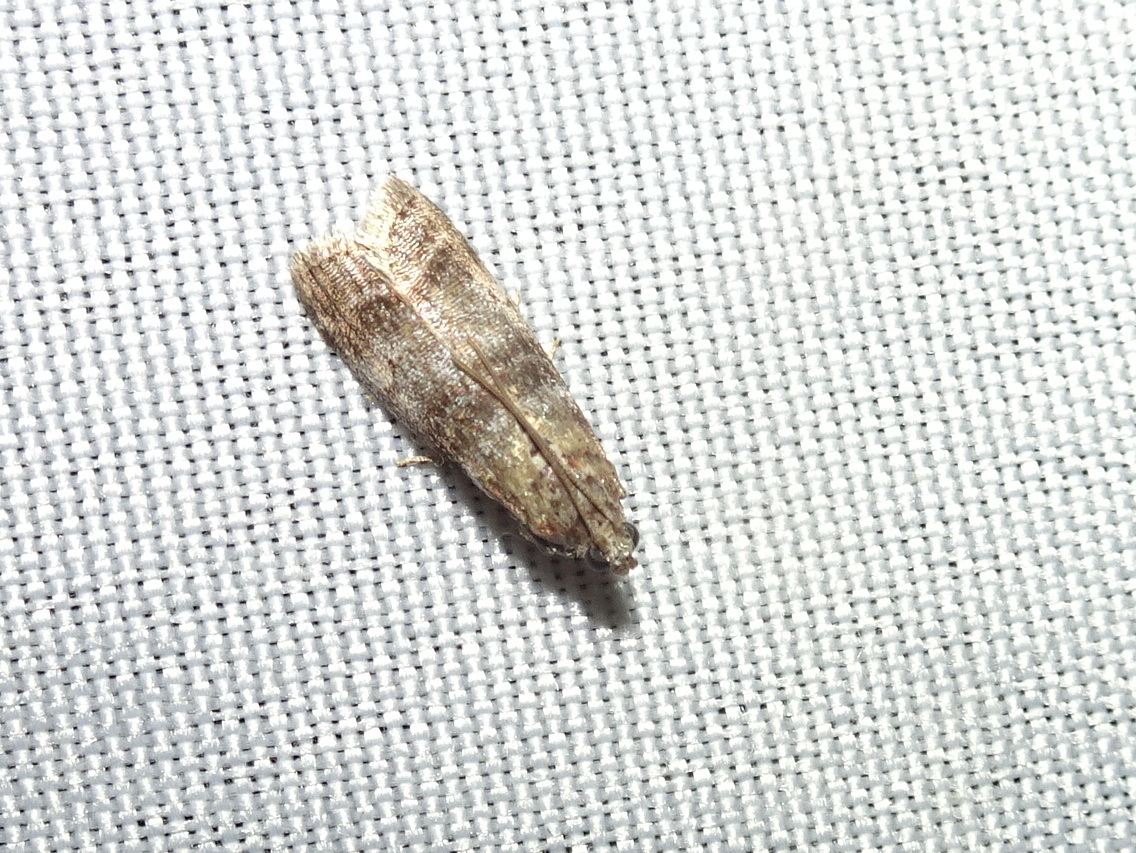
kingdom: Animalia
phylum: Arthropoda
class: Insecta
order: Lepidoptera
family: Pyralidae
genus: Sciota
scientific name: Sciota uvinella
